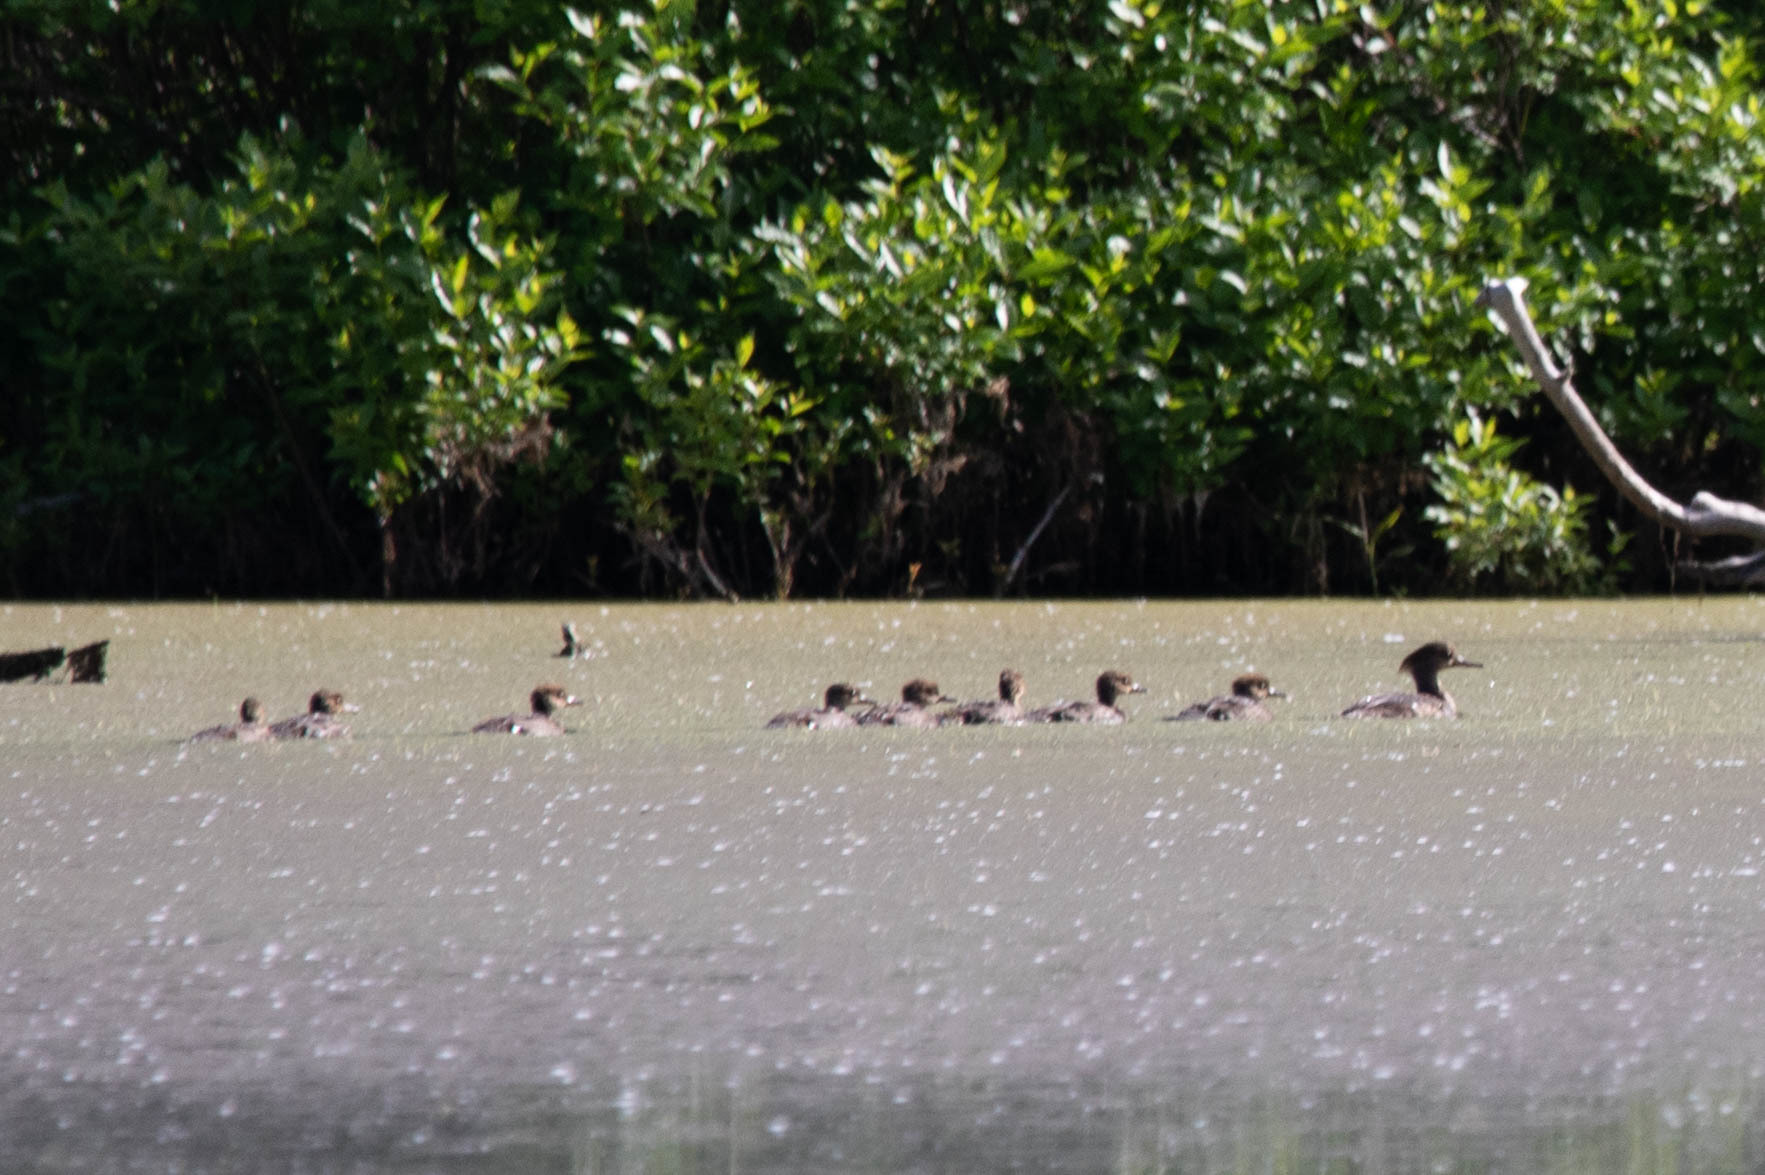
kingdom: Animalia
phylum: Chordata
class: Aves
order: Anseriformes
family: Anatidae
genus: Lophodytes
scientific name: Lophodytes cucullatus
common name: Hooded merganser
